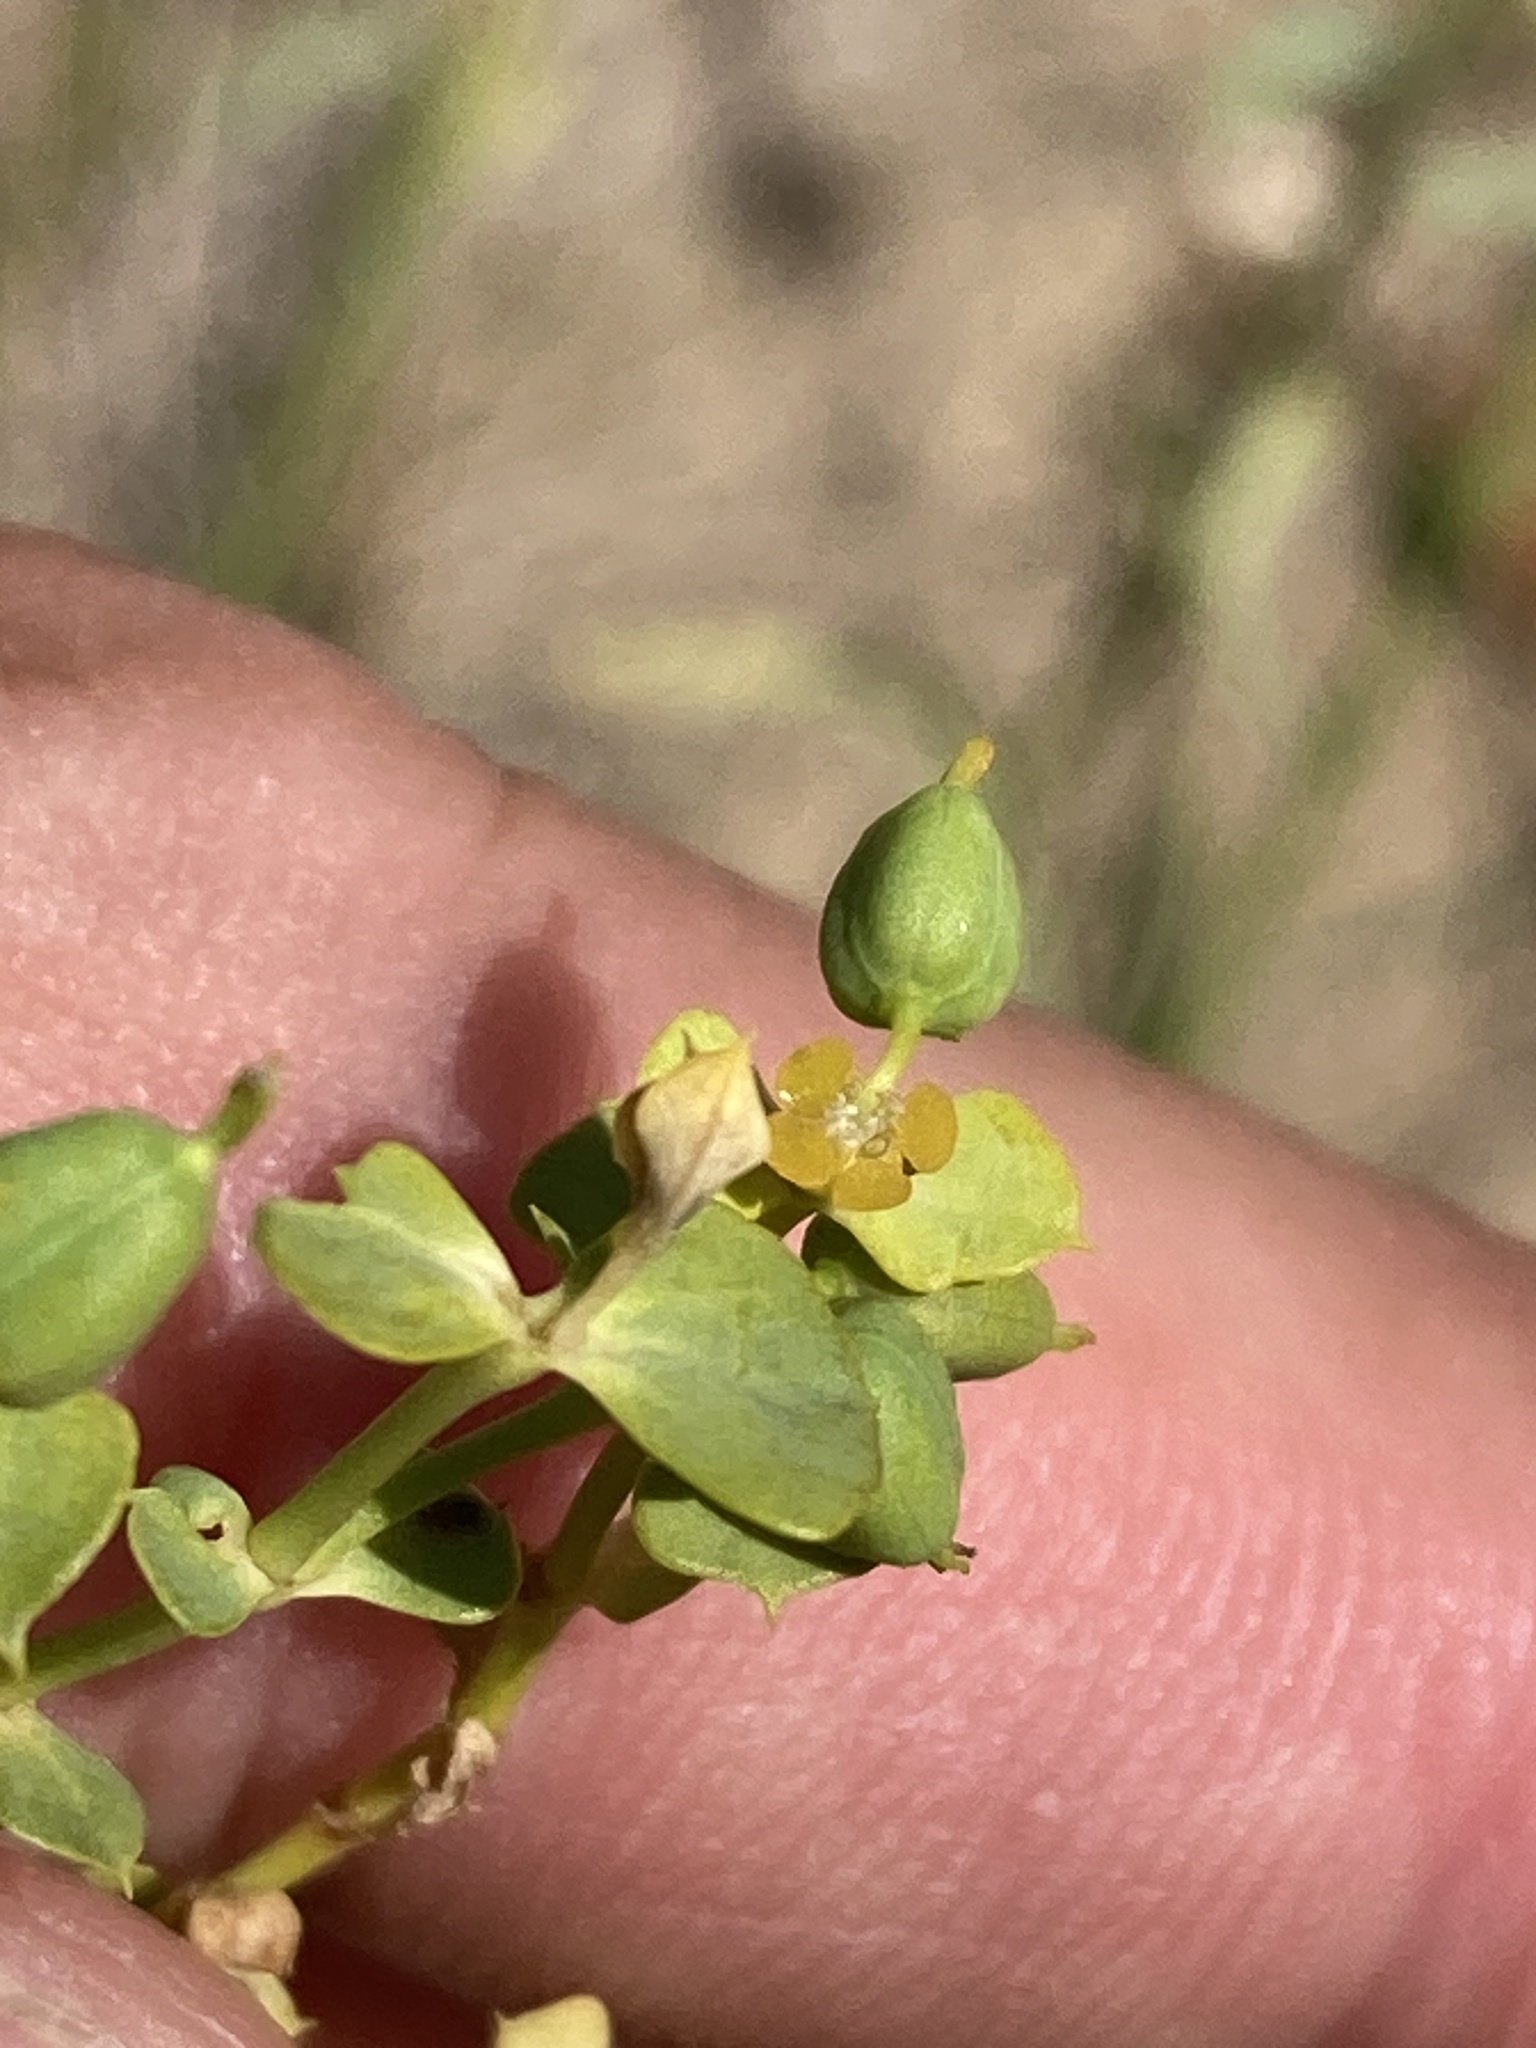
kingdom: Plantae
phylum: Tracheophyta
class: Magnoliopsida
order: Malpighiales
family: Euphorbiaceae
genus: Euphorbia
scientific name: Euphorbia seguieriana
